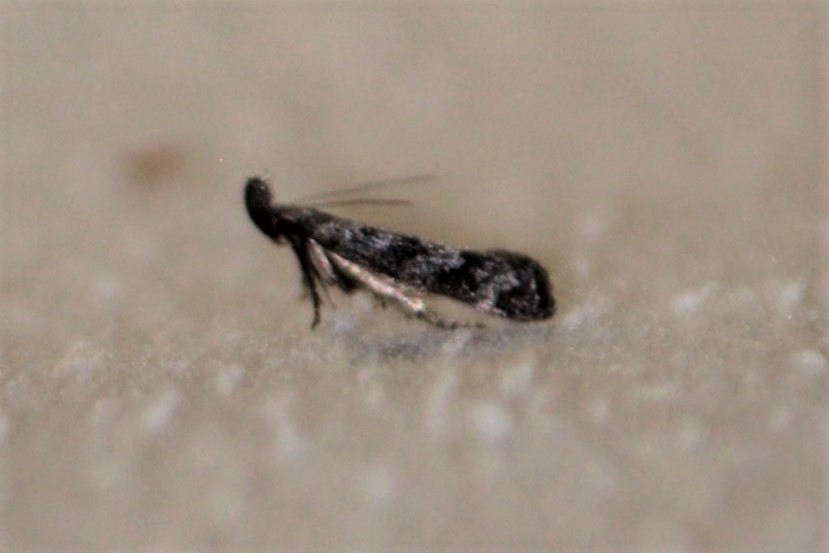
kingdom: Animalia
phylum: Arthropoda
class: Insecta
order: Lepidoptera
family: Gelechiidae
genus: Dichomeris
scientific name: Dichomeris inversella
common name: Inverse dichomeris moth
